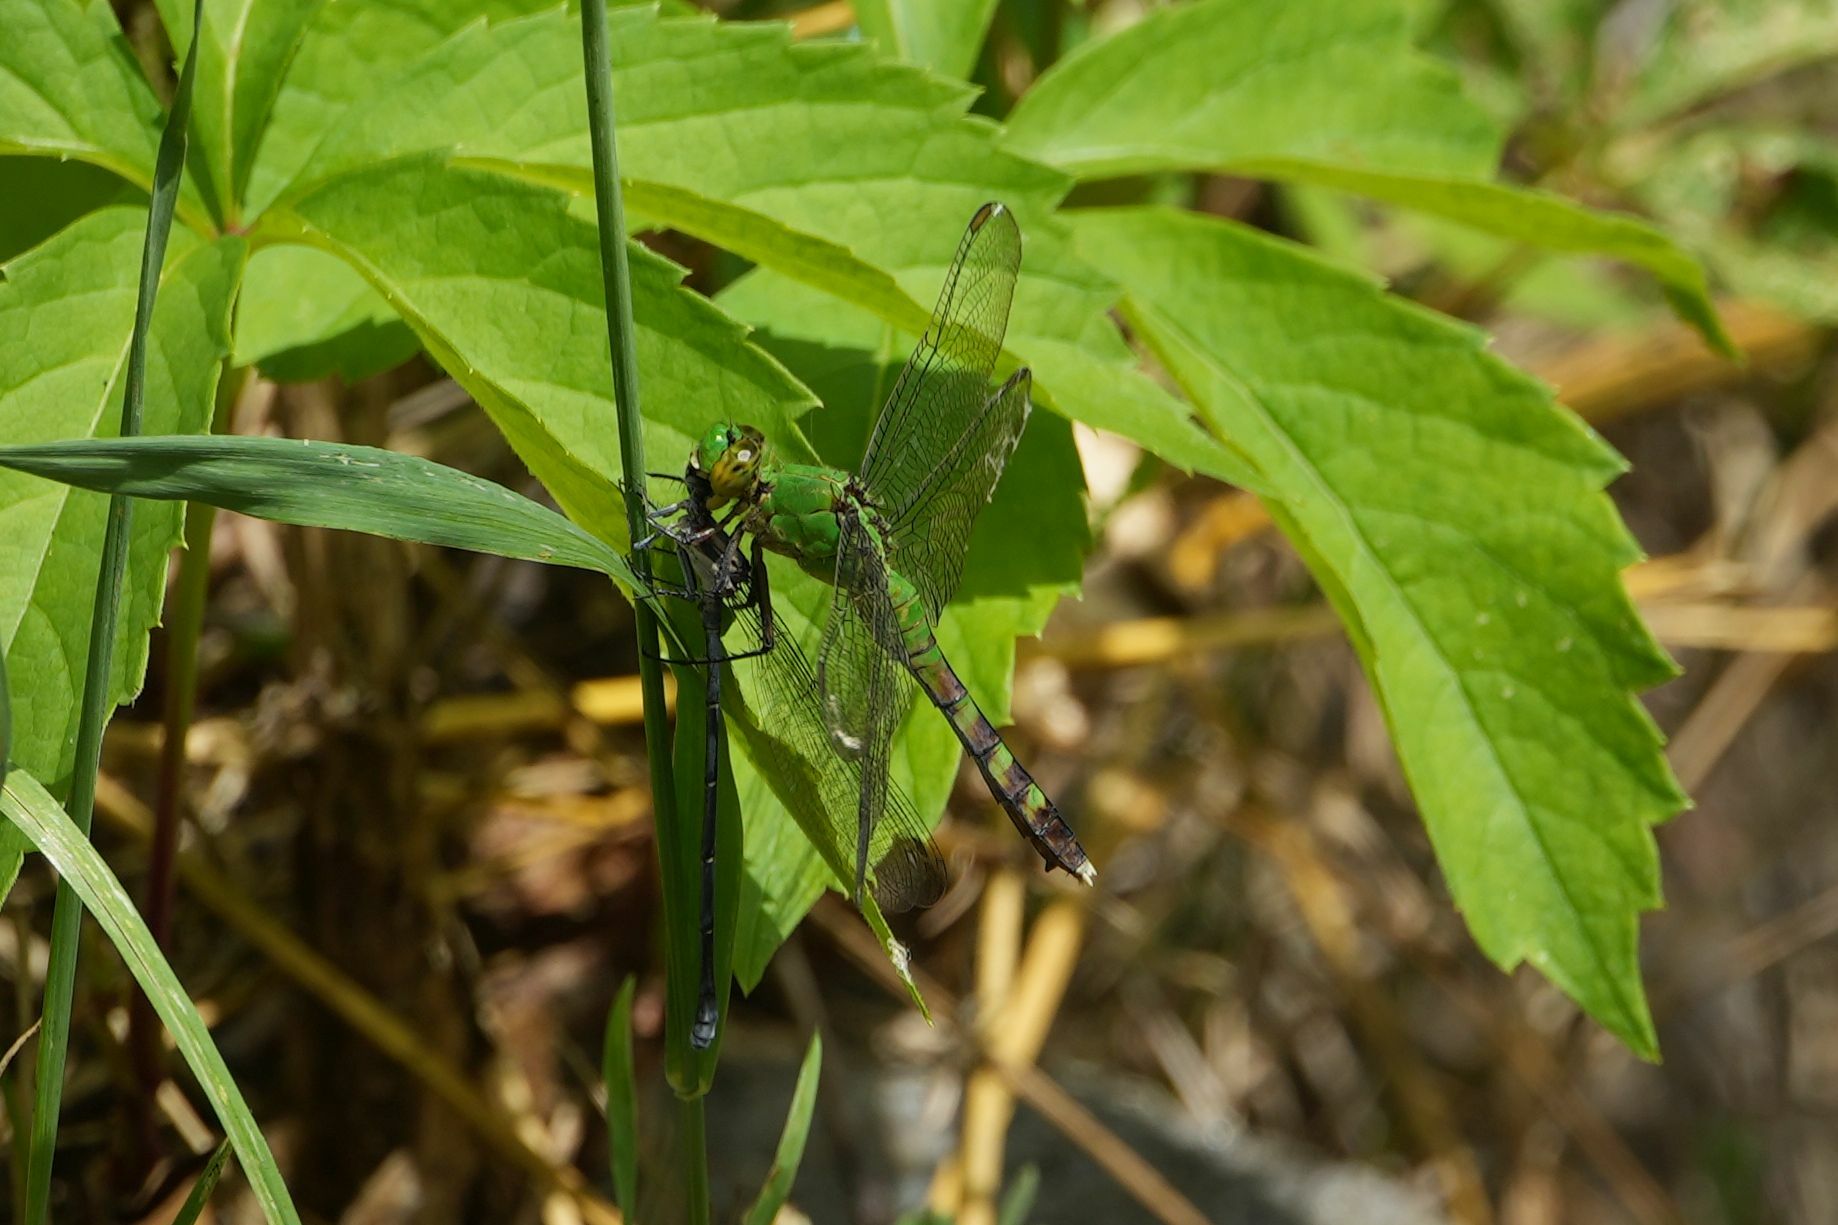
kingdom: Animalia
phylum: Arthropoda
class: Insecta
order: Odonata
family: Libellulidae
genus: Erythemis
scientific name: Erythemis simplicicollis
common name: Eastern pondhawk
